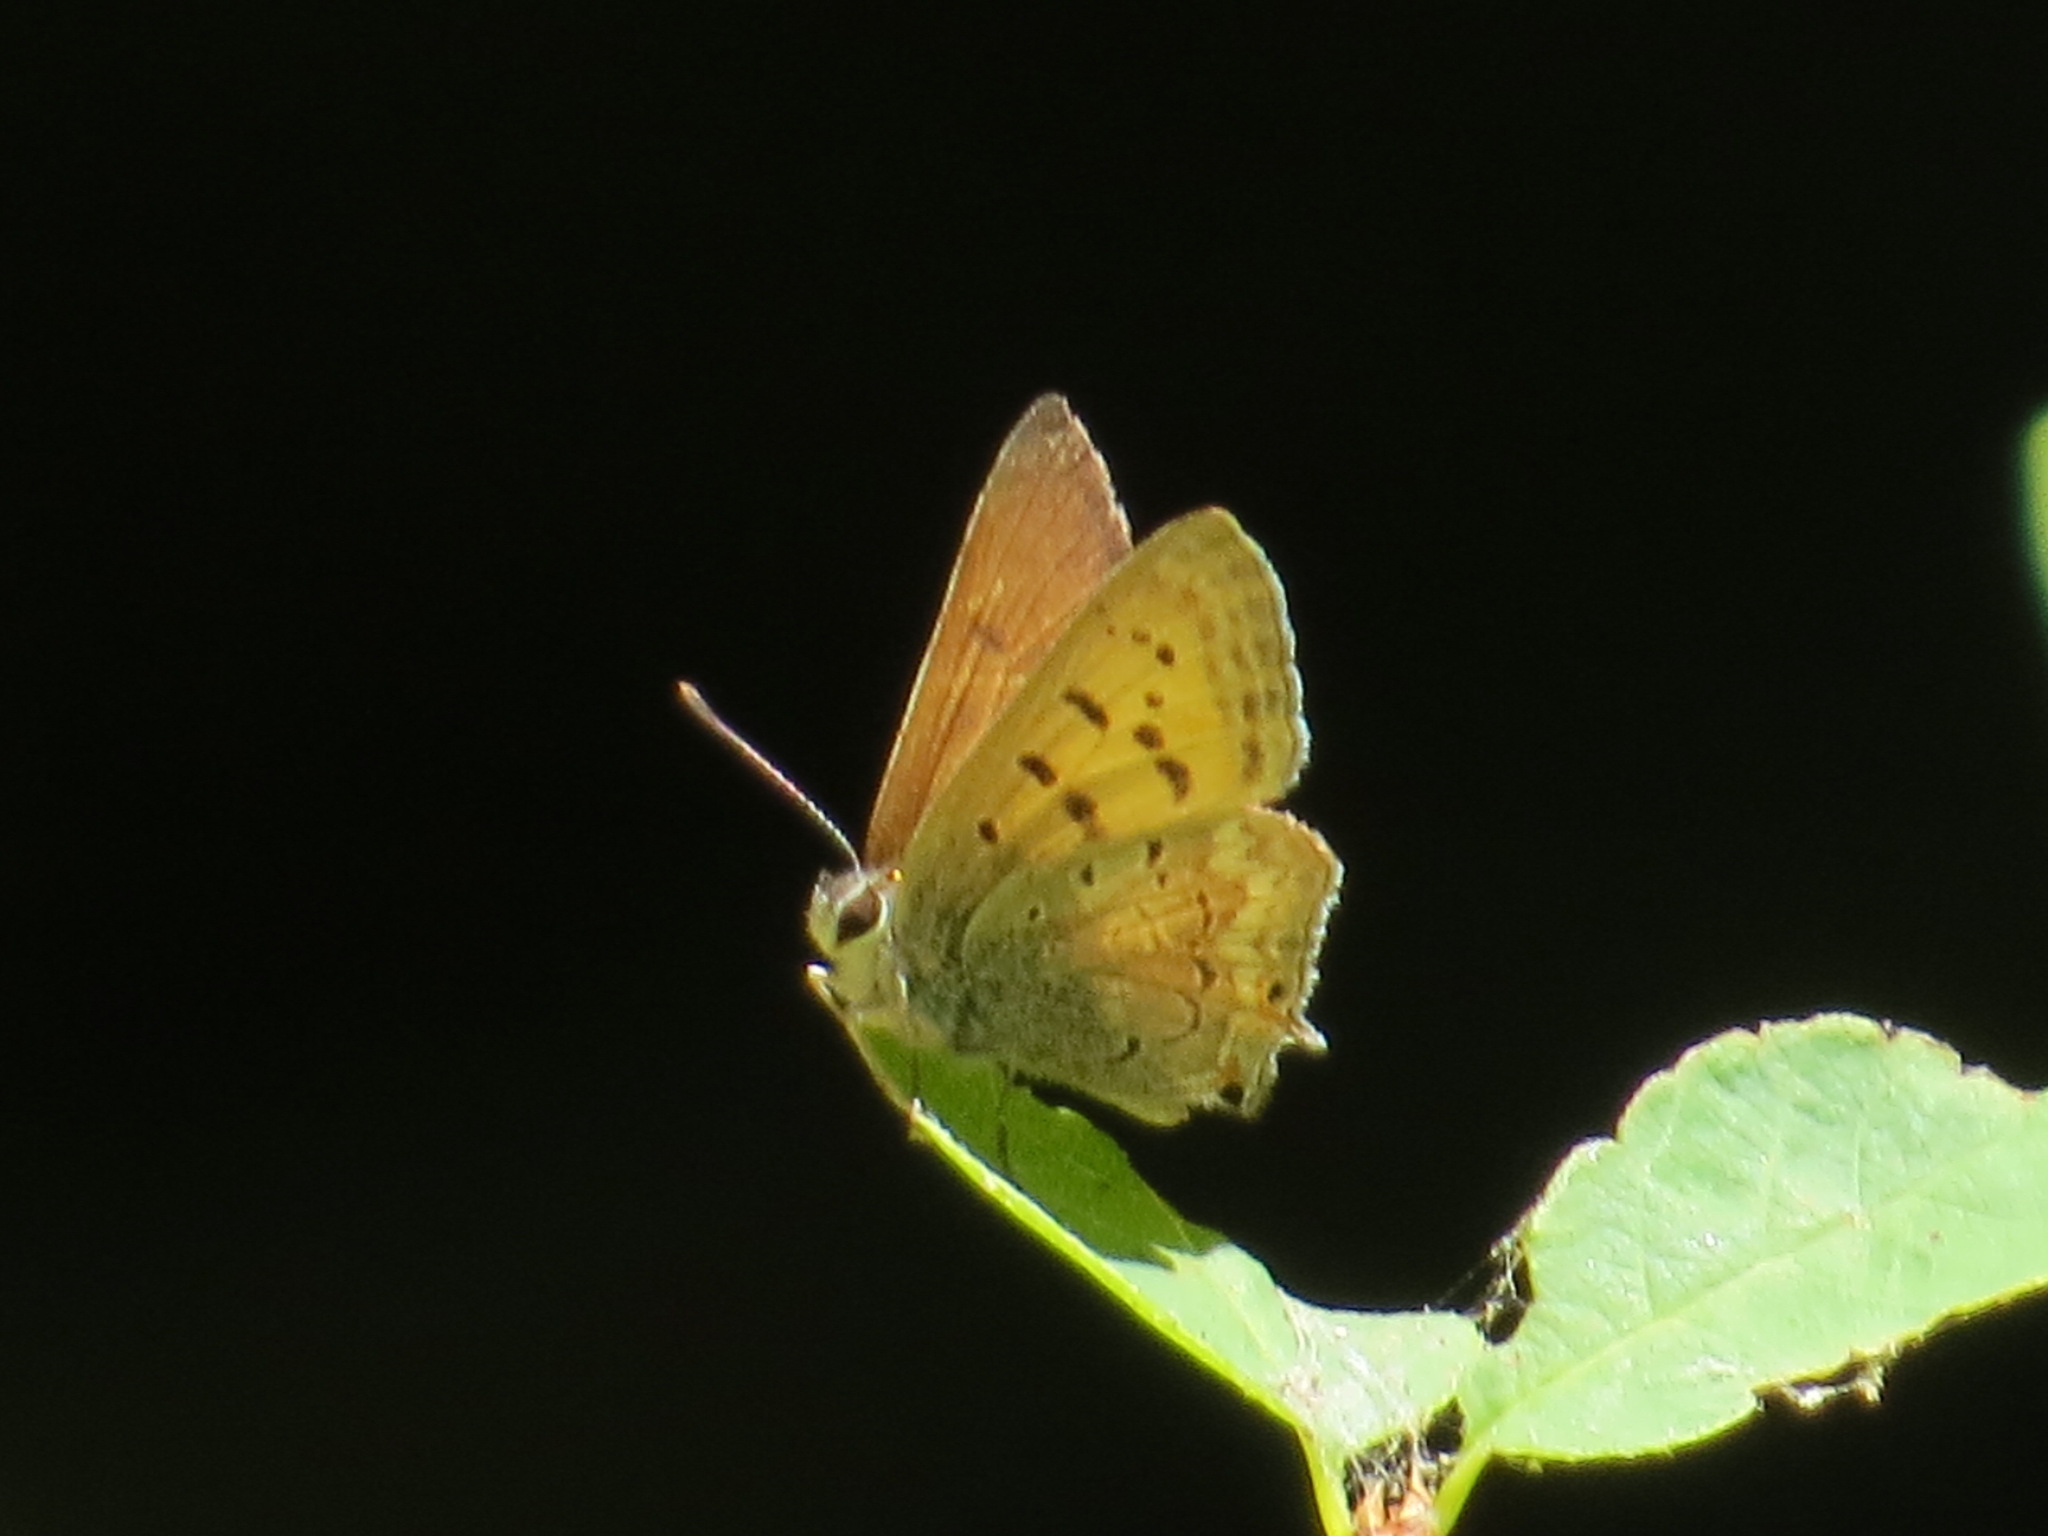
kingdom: Animalia
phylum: Arthropoda
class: Insecta
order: Lepidoptera
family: Lycaenidae
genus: Tharsalea
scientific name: Tharsalea arota
